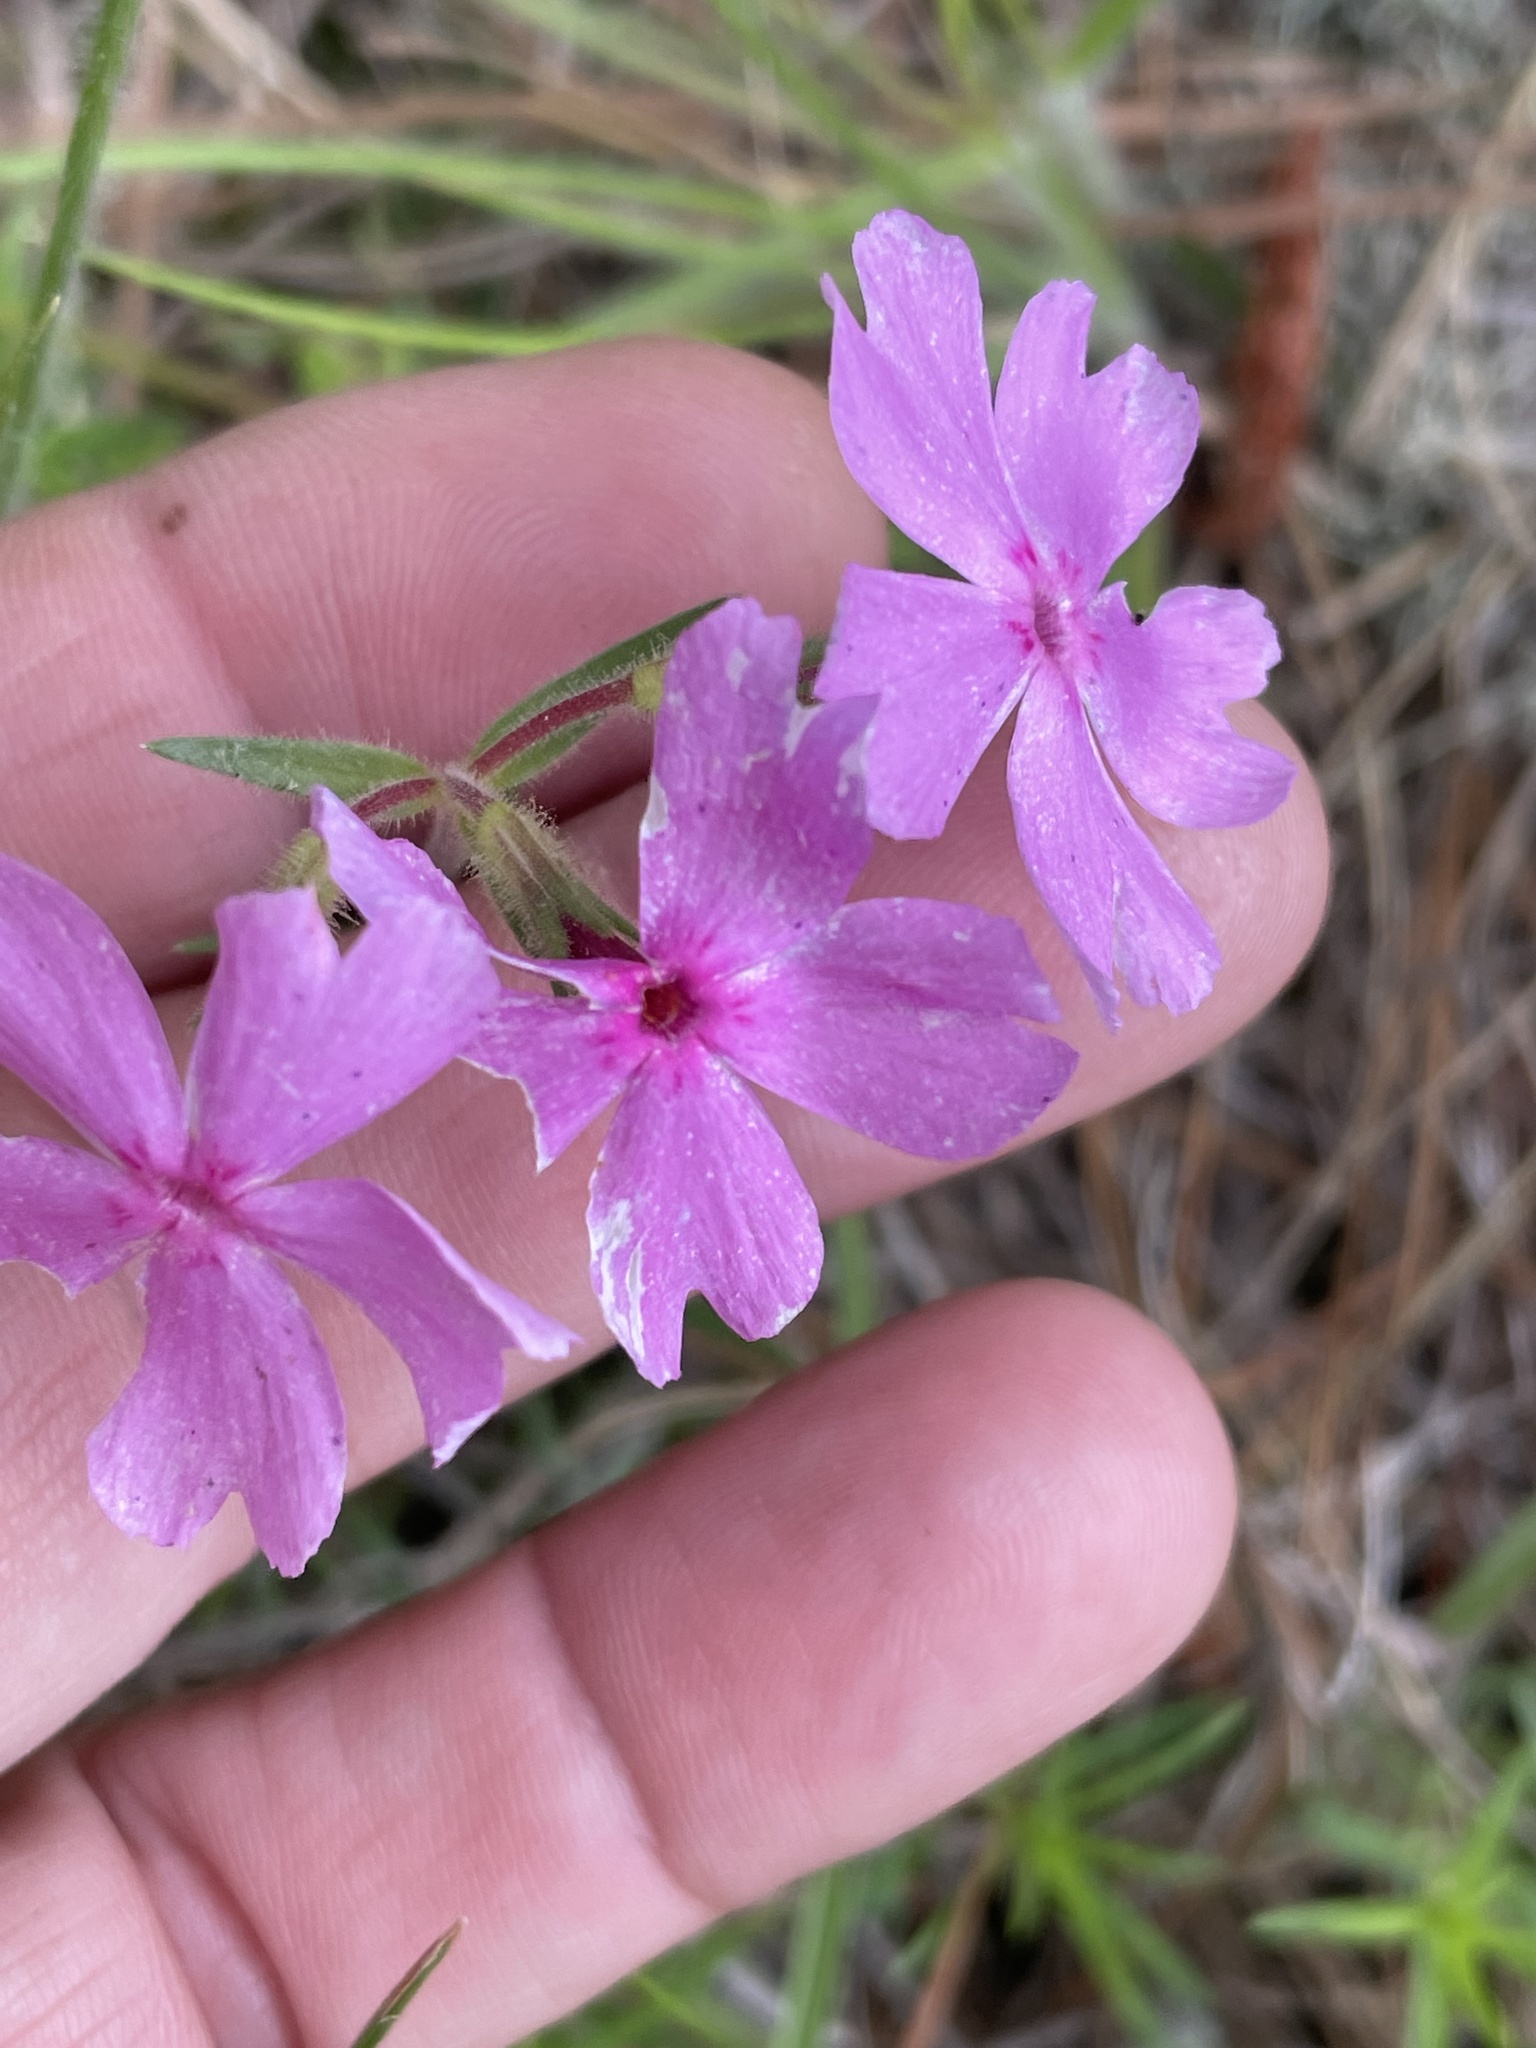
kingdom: Plantae
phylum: Tracheophyta
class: Magnoliopsida
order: Ericales
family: Polemoniaceae
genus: Phlox
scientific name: Phlox nivalis
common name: Trailing phlox
